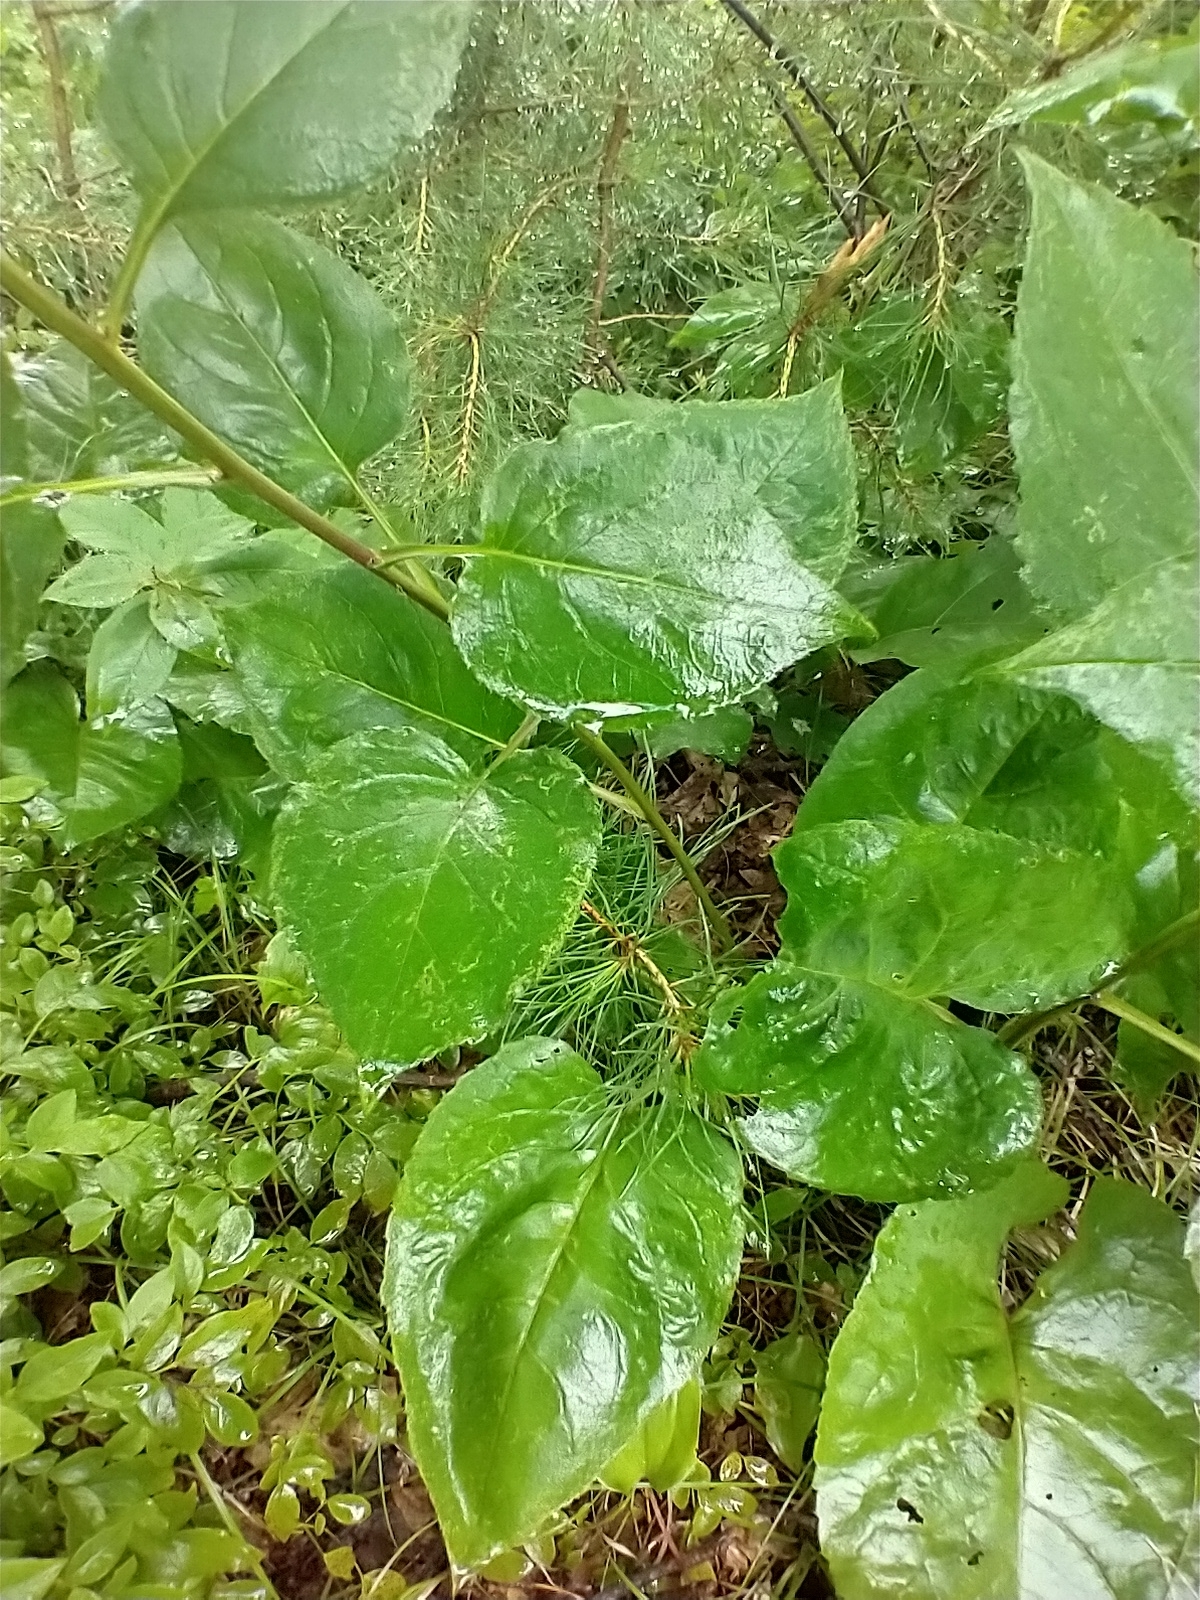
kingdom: Plantae
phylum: Tracheophyta
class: Magnoliopsida
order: Asterales
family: Asteraceae
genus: Eurybia
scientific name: Eurybia macrophylla
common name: Big-leaved aster
